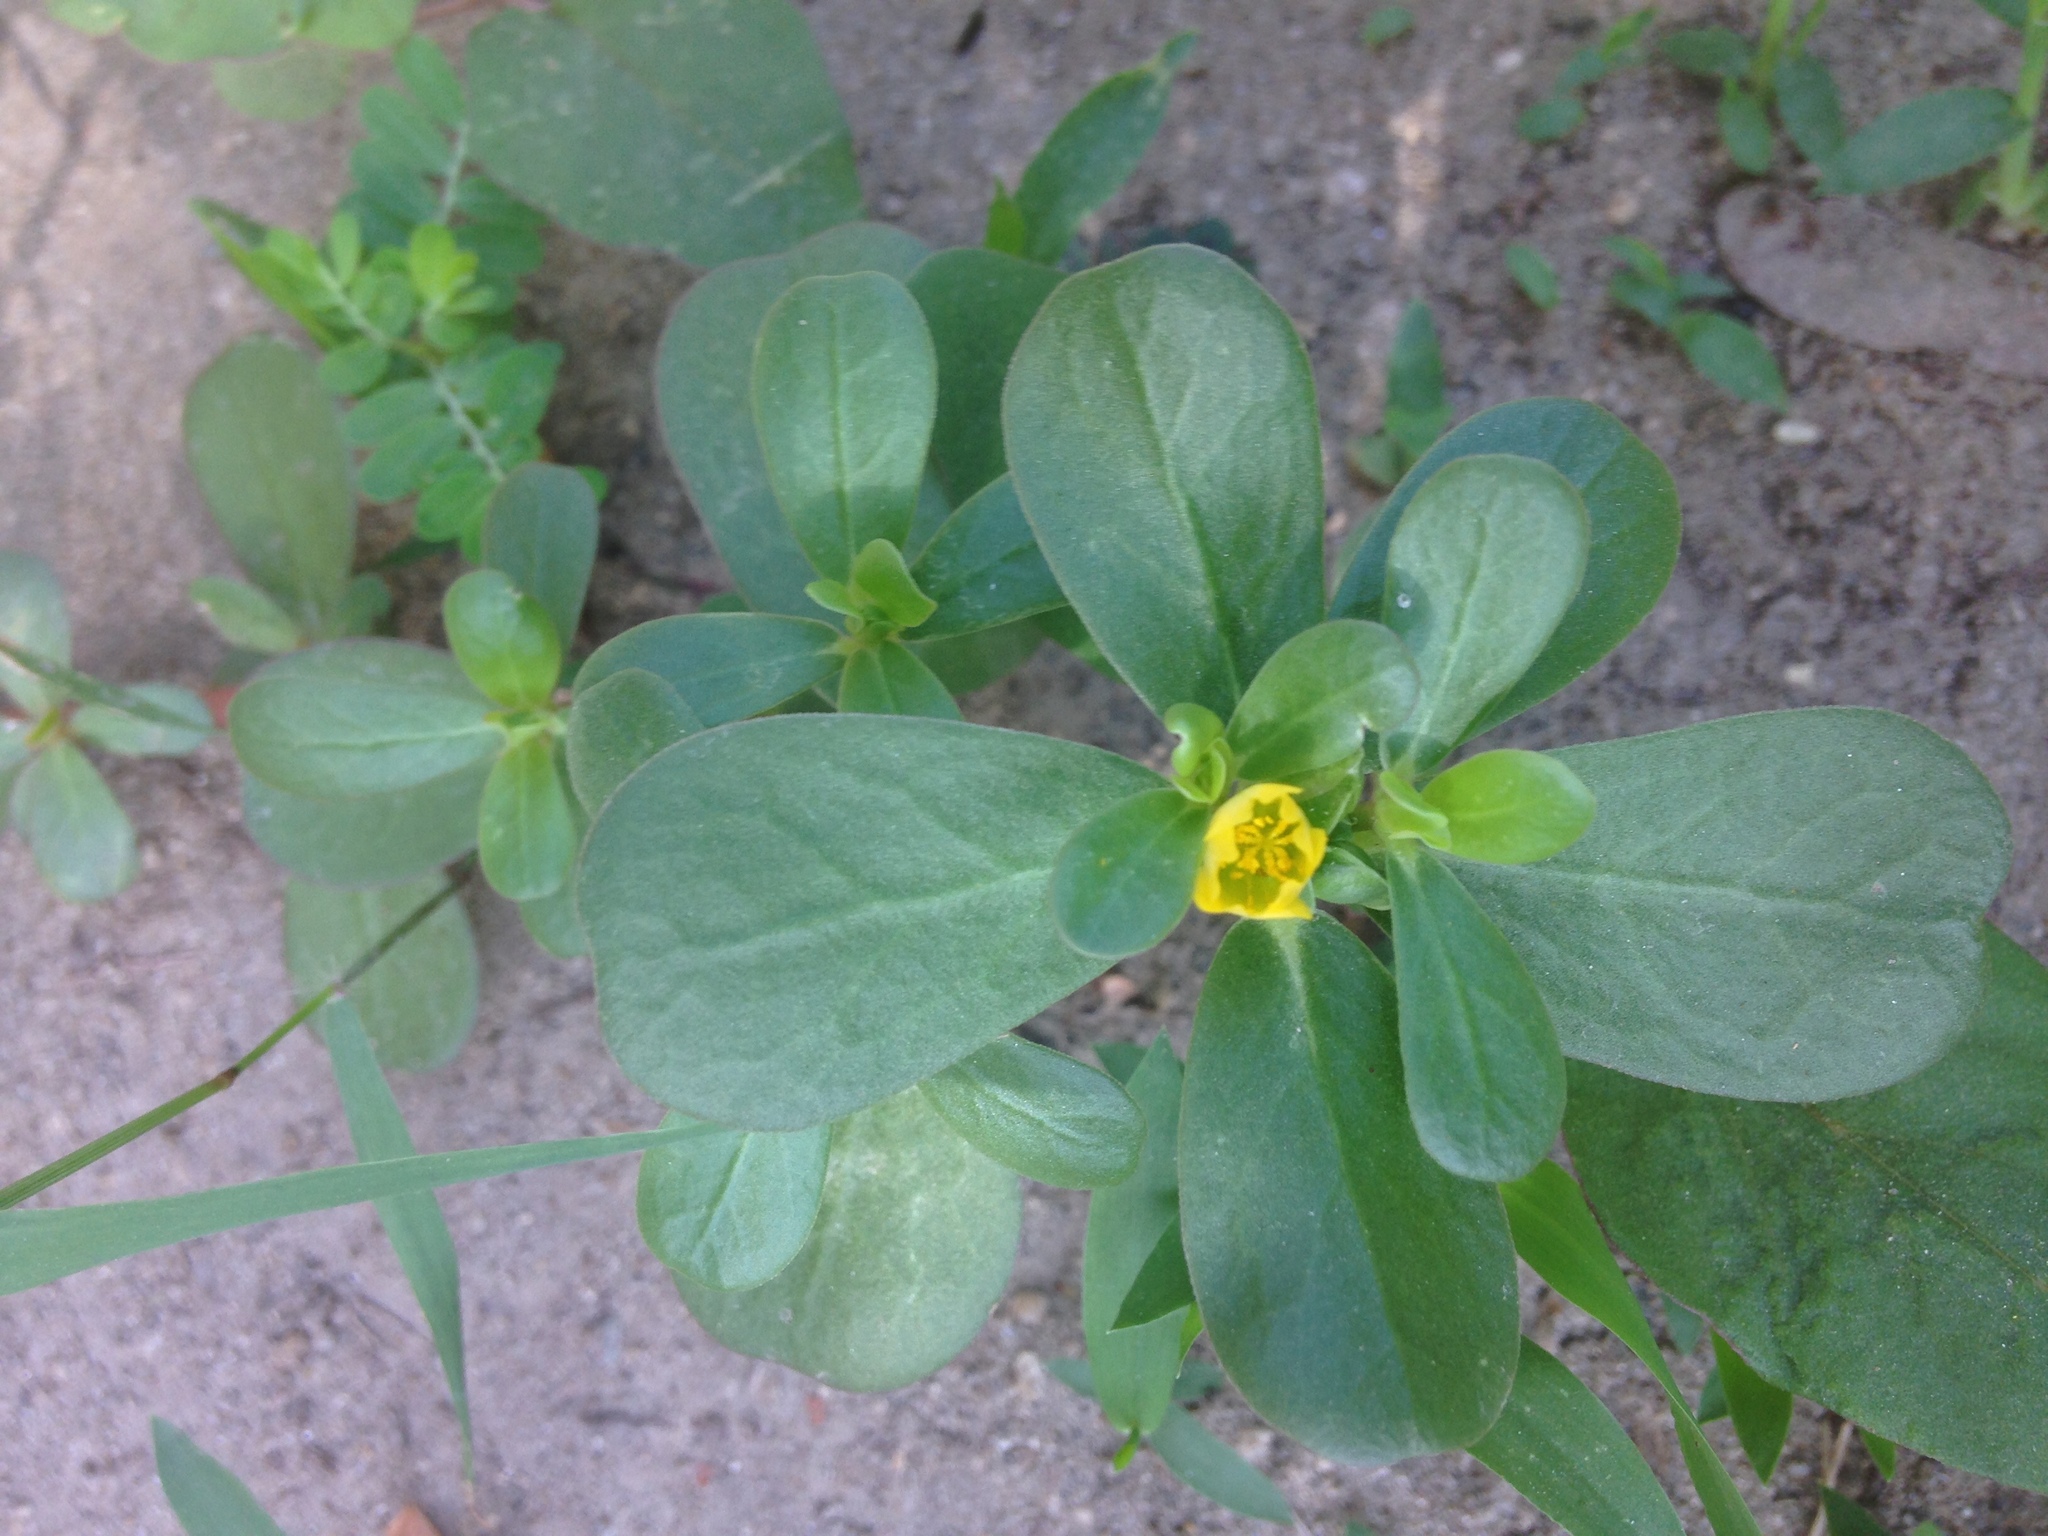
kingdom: Plantae
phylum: Tracheophyta
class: Magnoliopsida
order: Caryophyllales
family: Portulacaceae
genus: Portulaca
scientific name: Portulaca oleracea
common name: Common purslane
